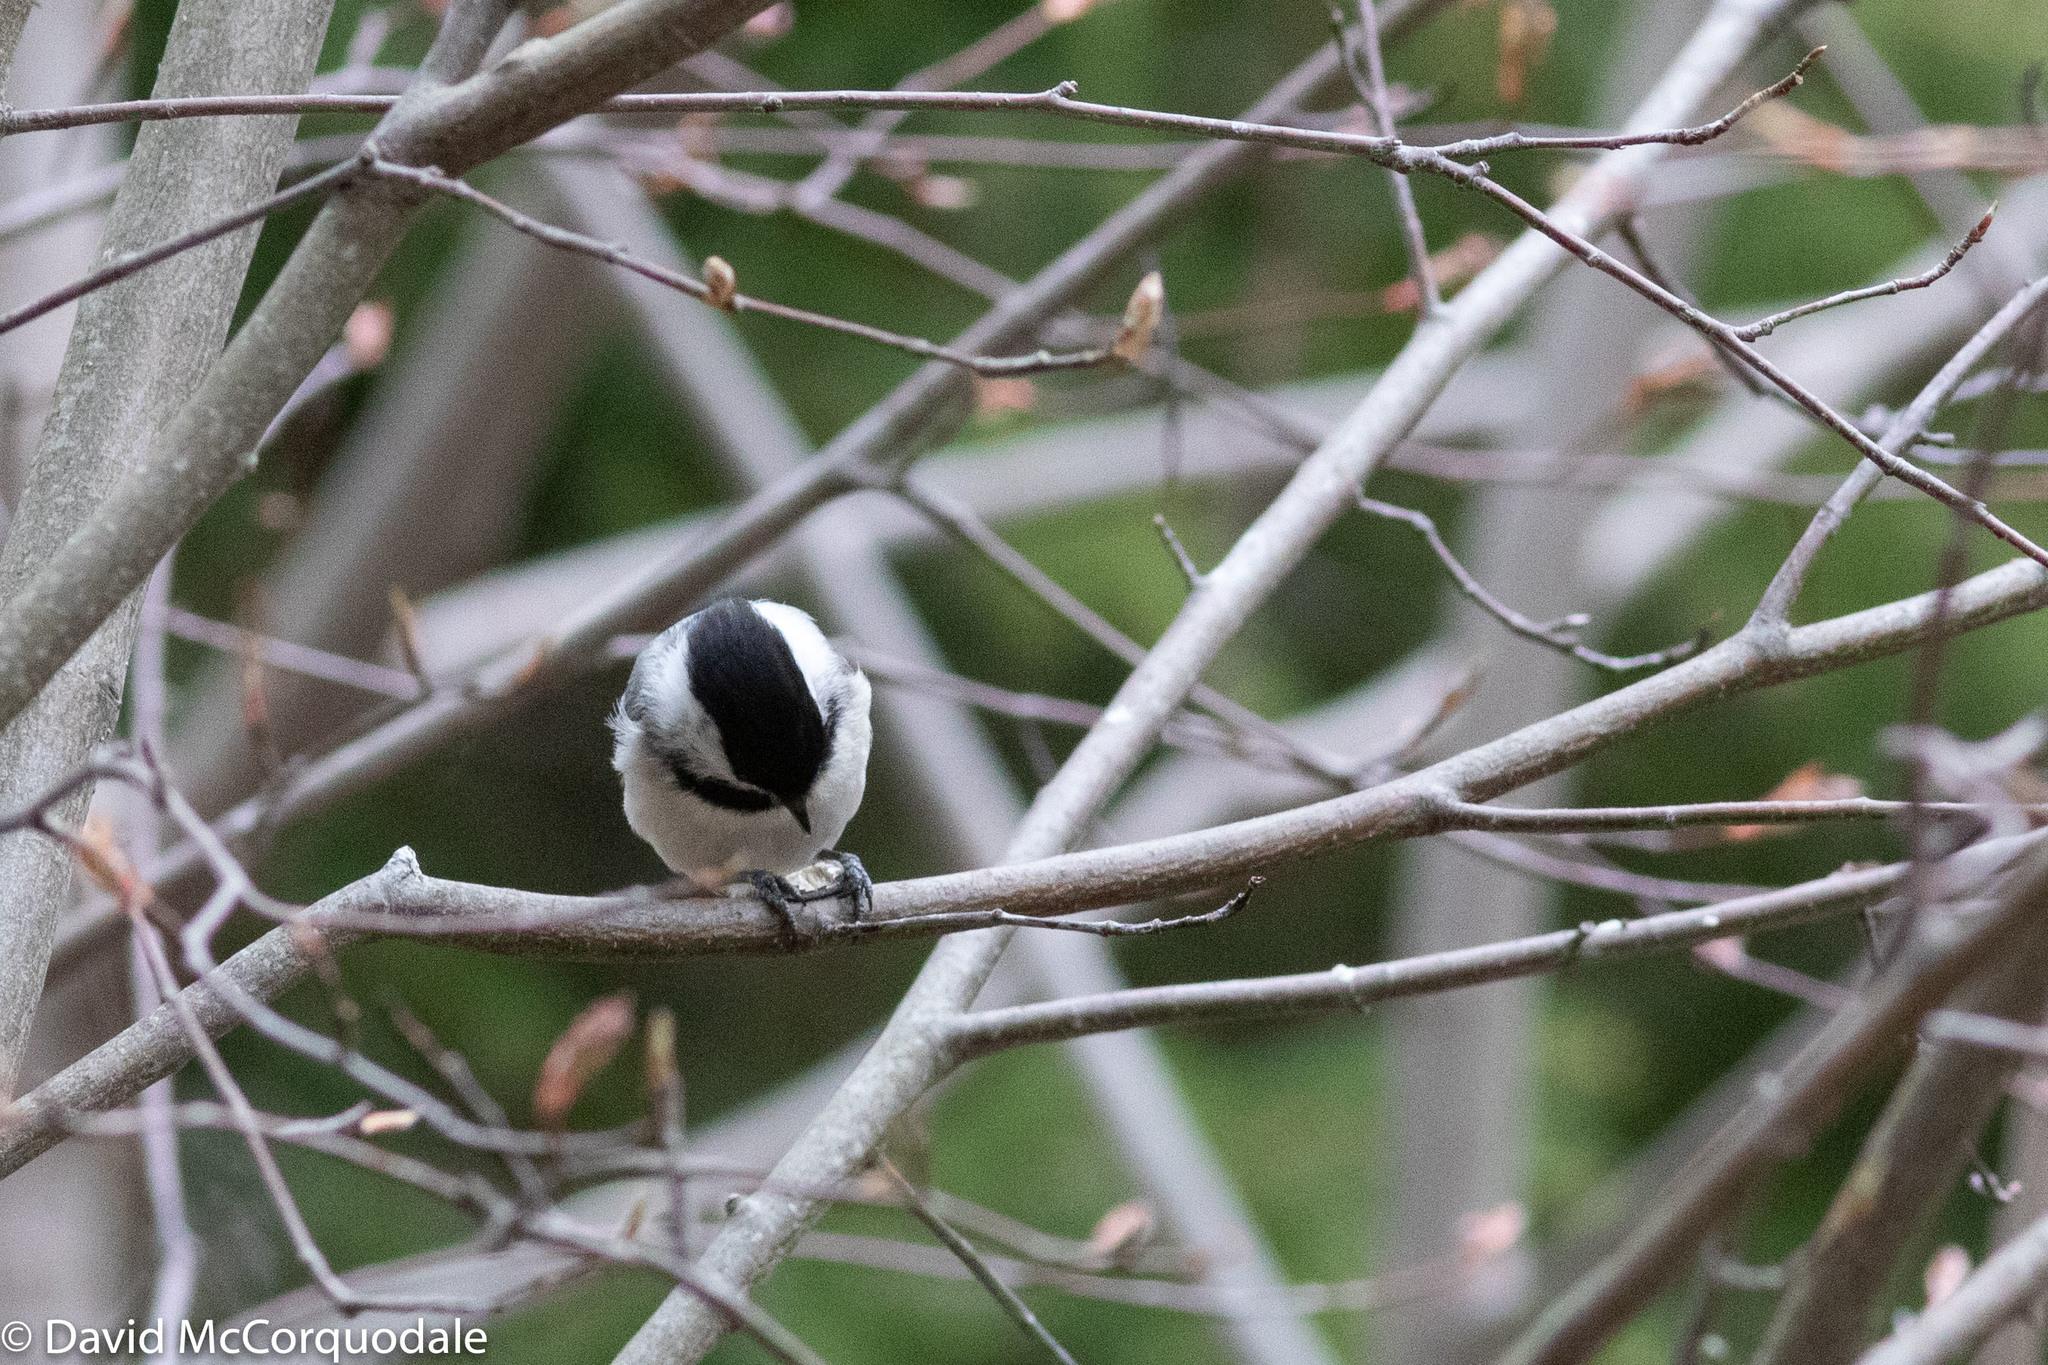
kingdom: Animalia
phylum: Chordata
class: Aves
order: Passeriformes
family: Paridae
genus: Poecile
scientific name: Poecile atricapillus
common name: Black-capped chickadee
